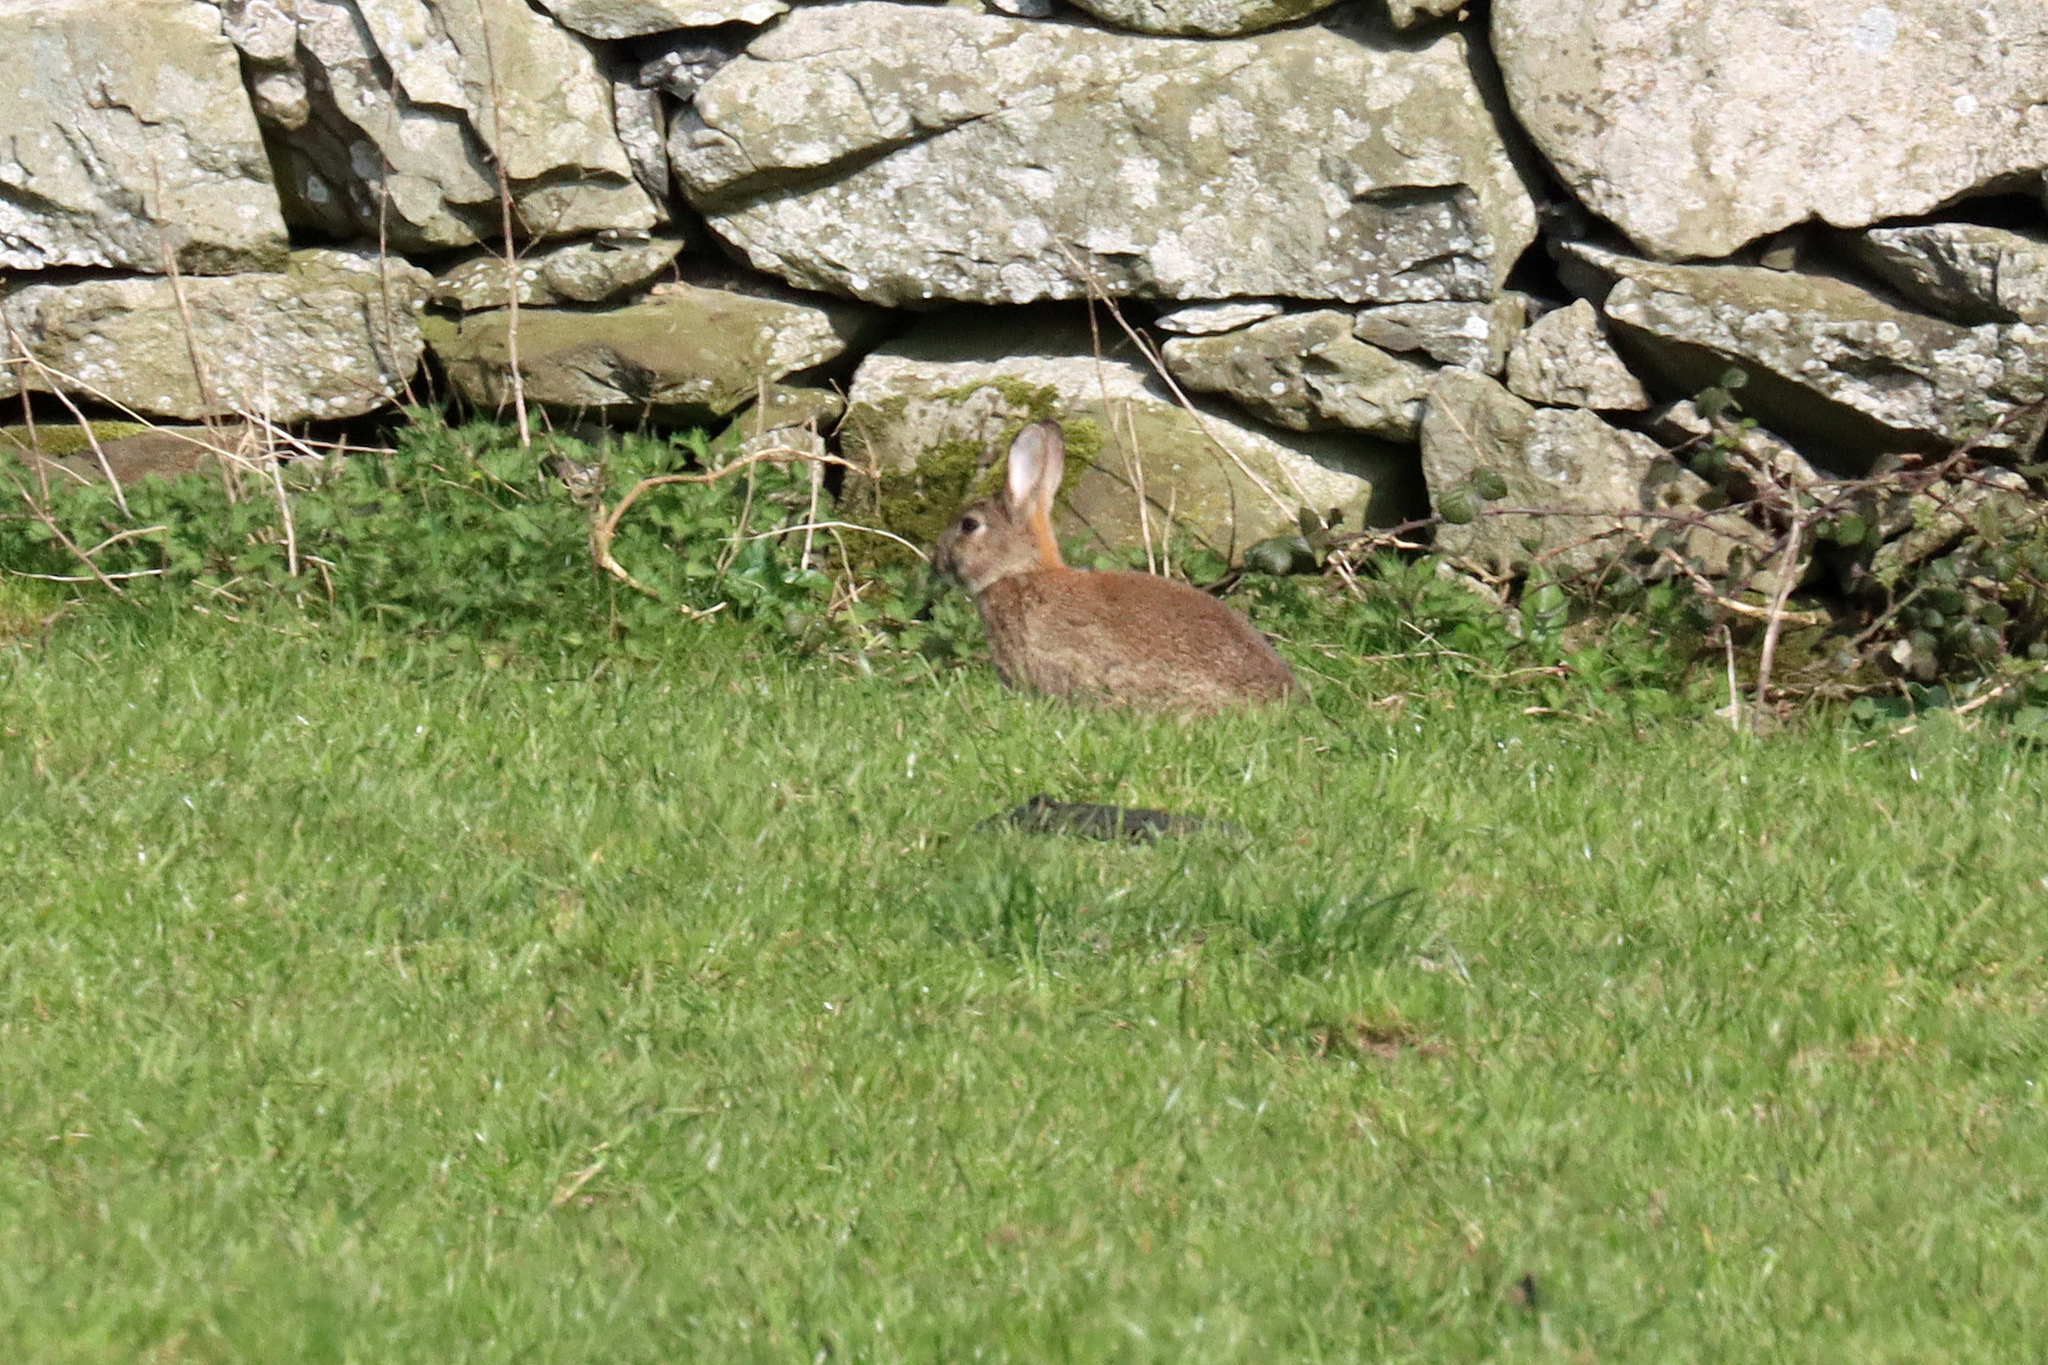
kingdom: Animalia
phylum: Chordata
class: Mammalia
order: Lagomorpha
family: Leporidae
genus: Oryctolagus
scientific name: Oryctolagus cuniculus
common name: European rabbit
